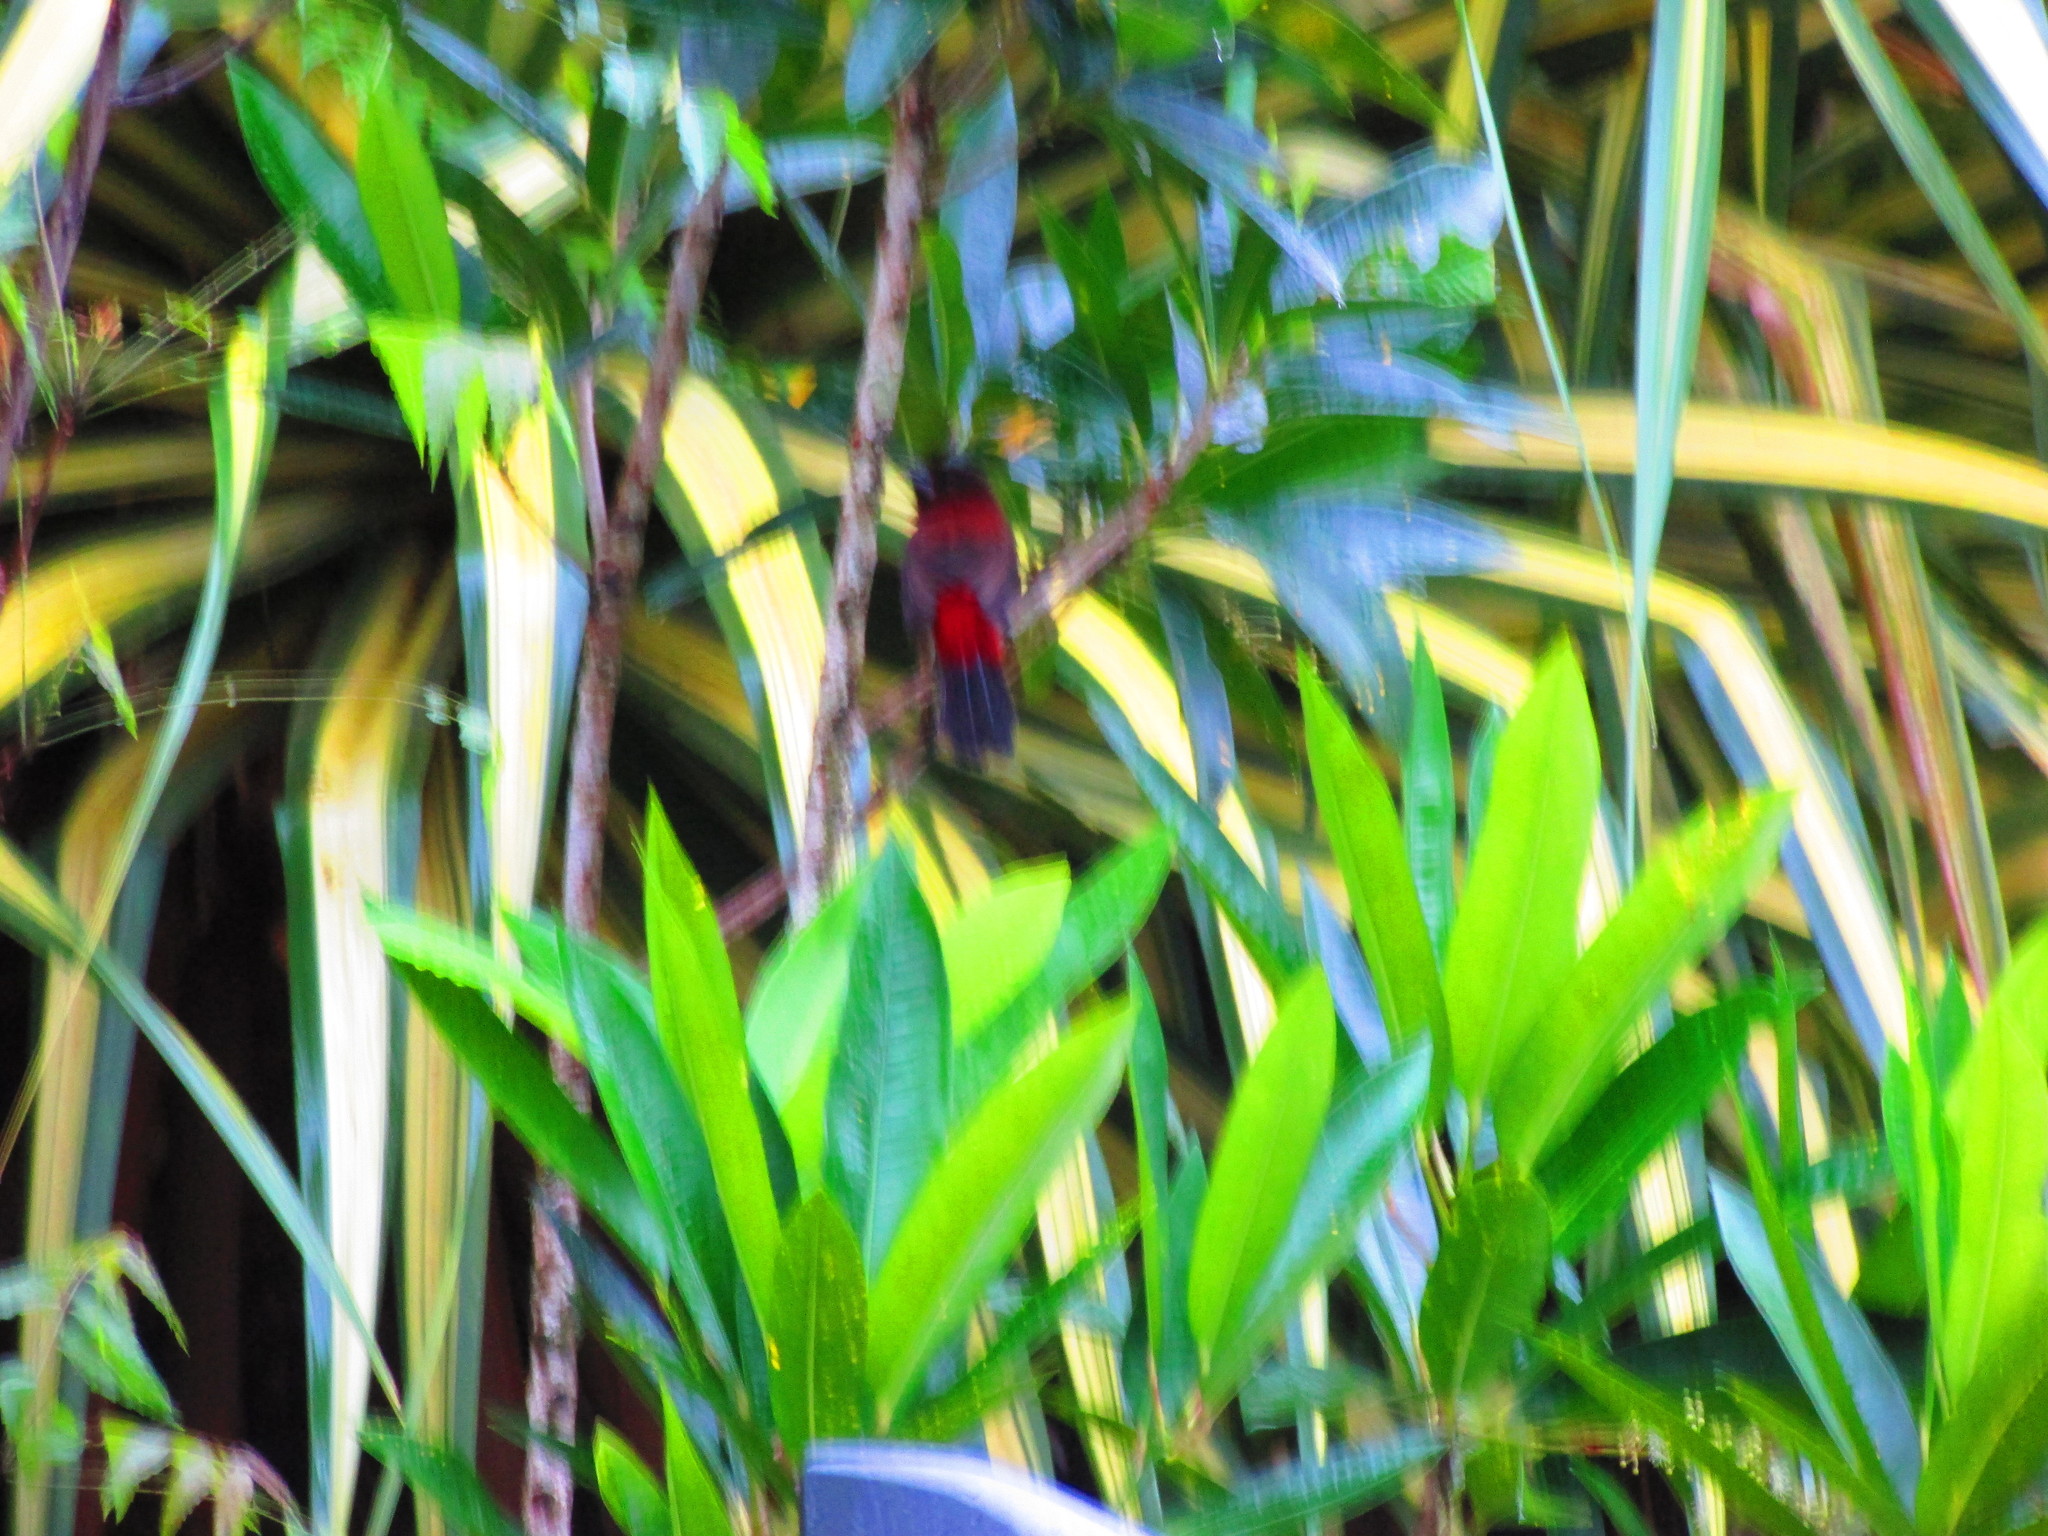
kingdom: Animalia
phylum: Chordata
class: Aves
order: Passeriformes
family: Thraupidae
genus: Ramphocelus
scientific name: Ramphocelus dimidiatus
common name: Crimson-backed tanager
